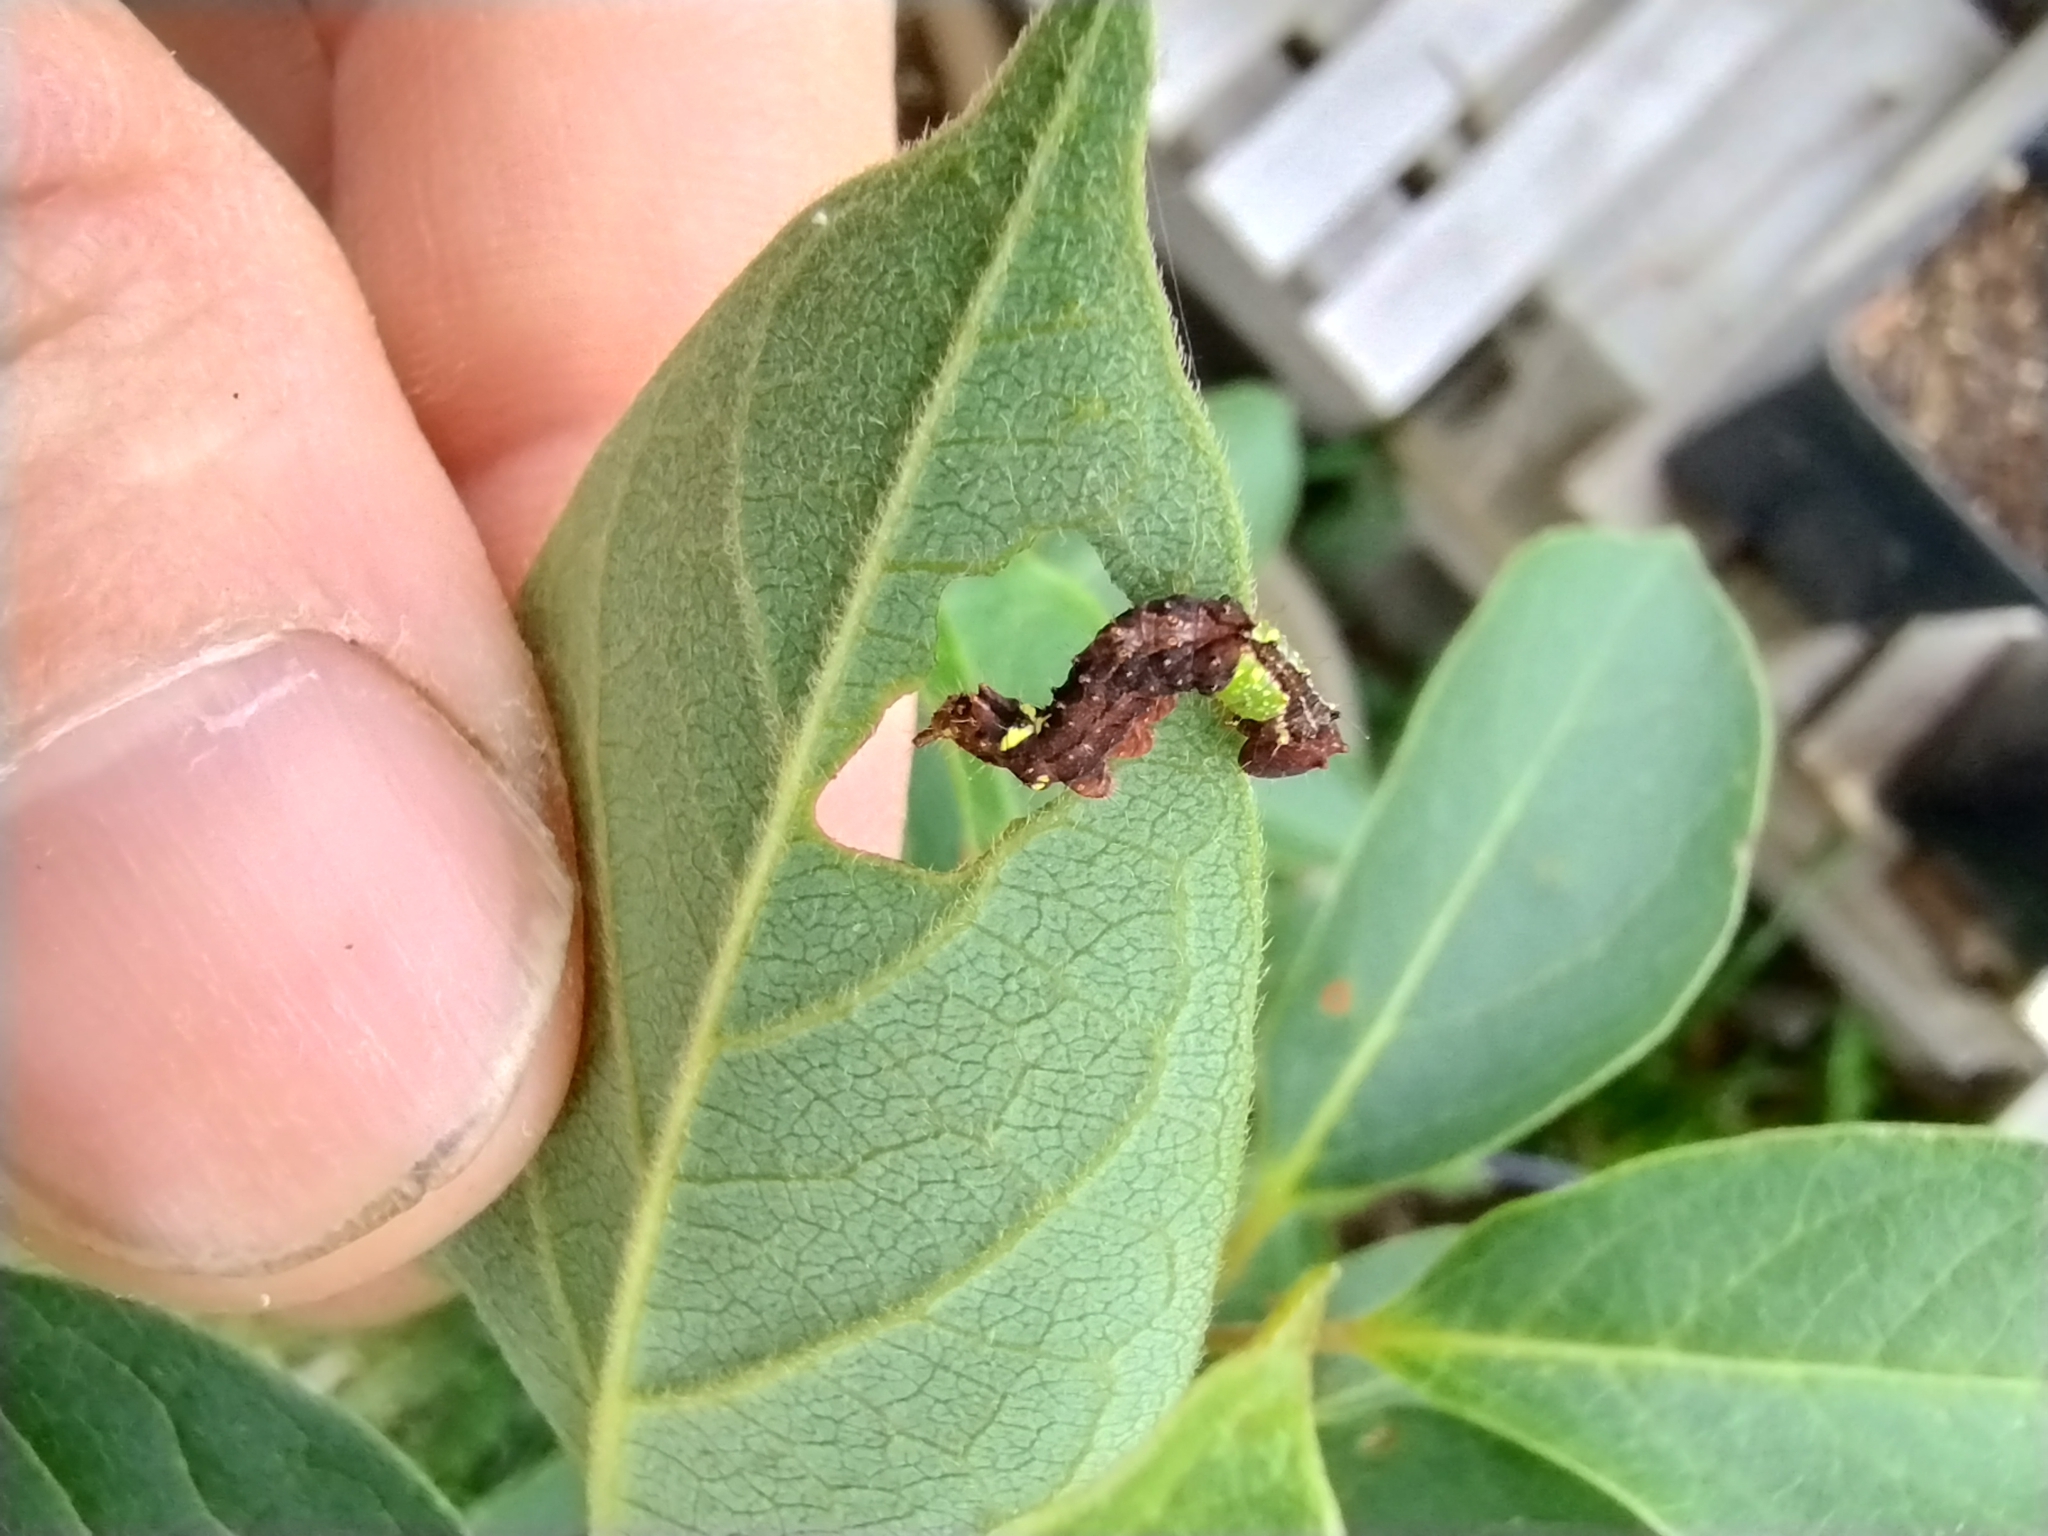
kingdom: Animalia
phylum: Arthropoda
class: Insecta
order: Lepidoptera
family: Notodontidae
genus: Schizura
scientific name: Schizura
